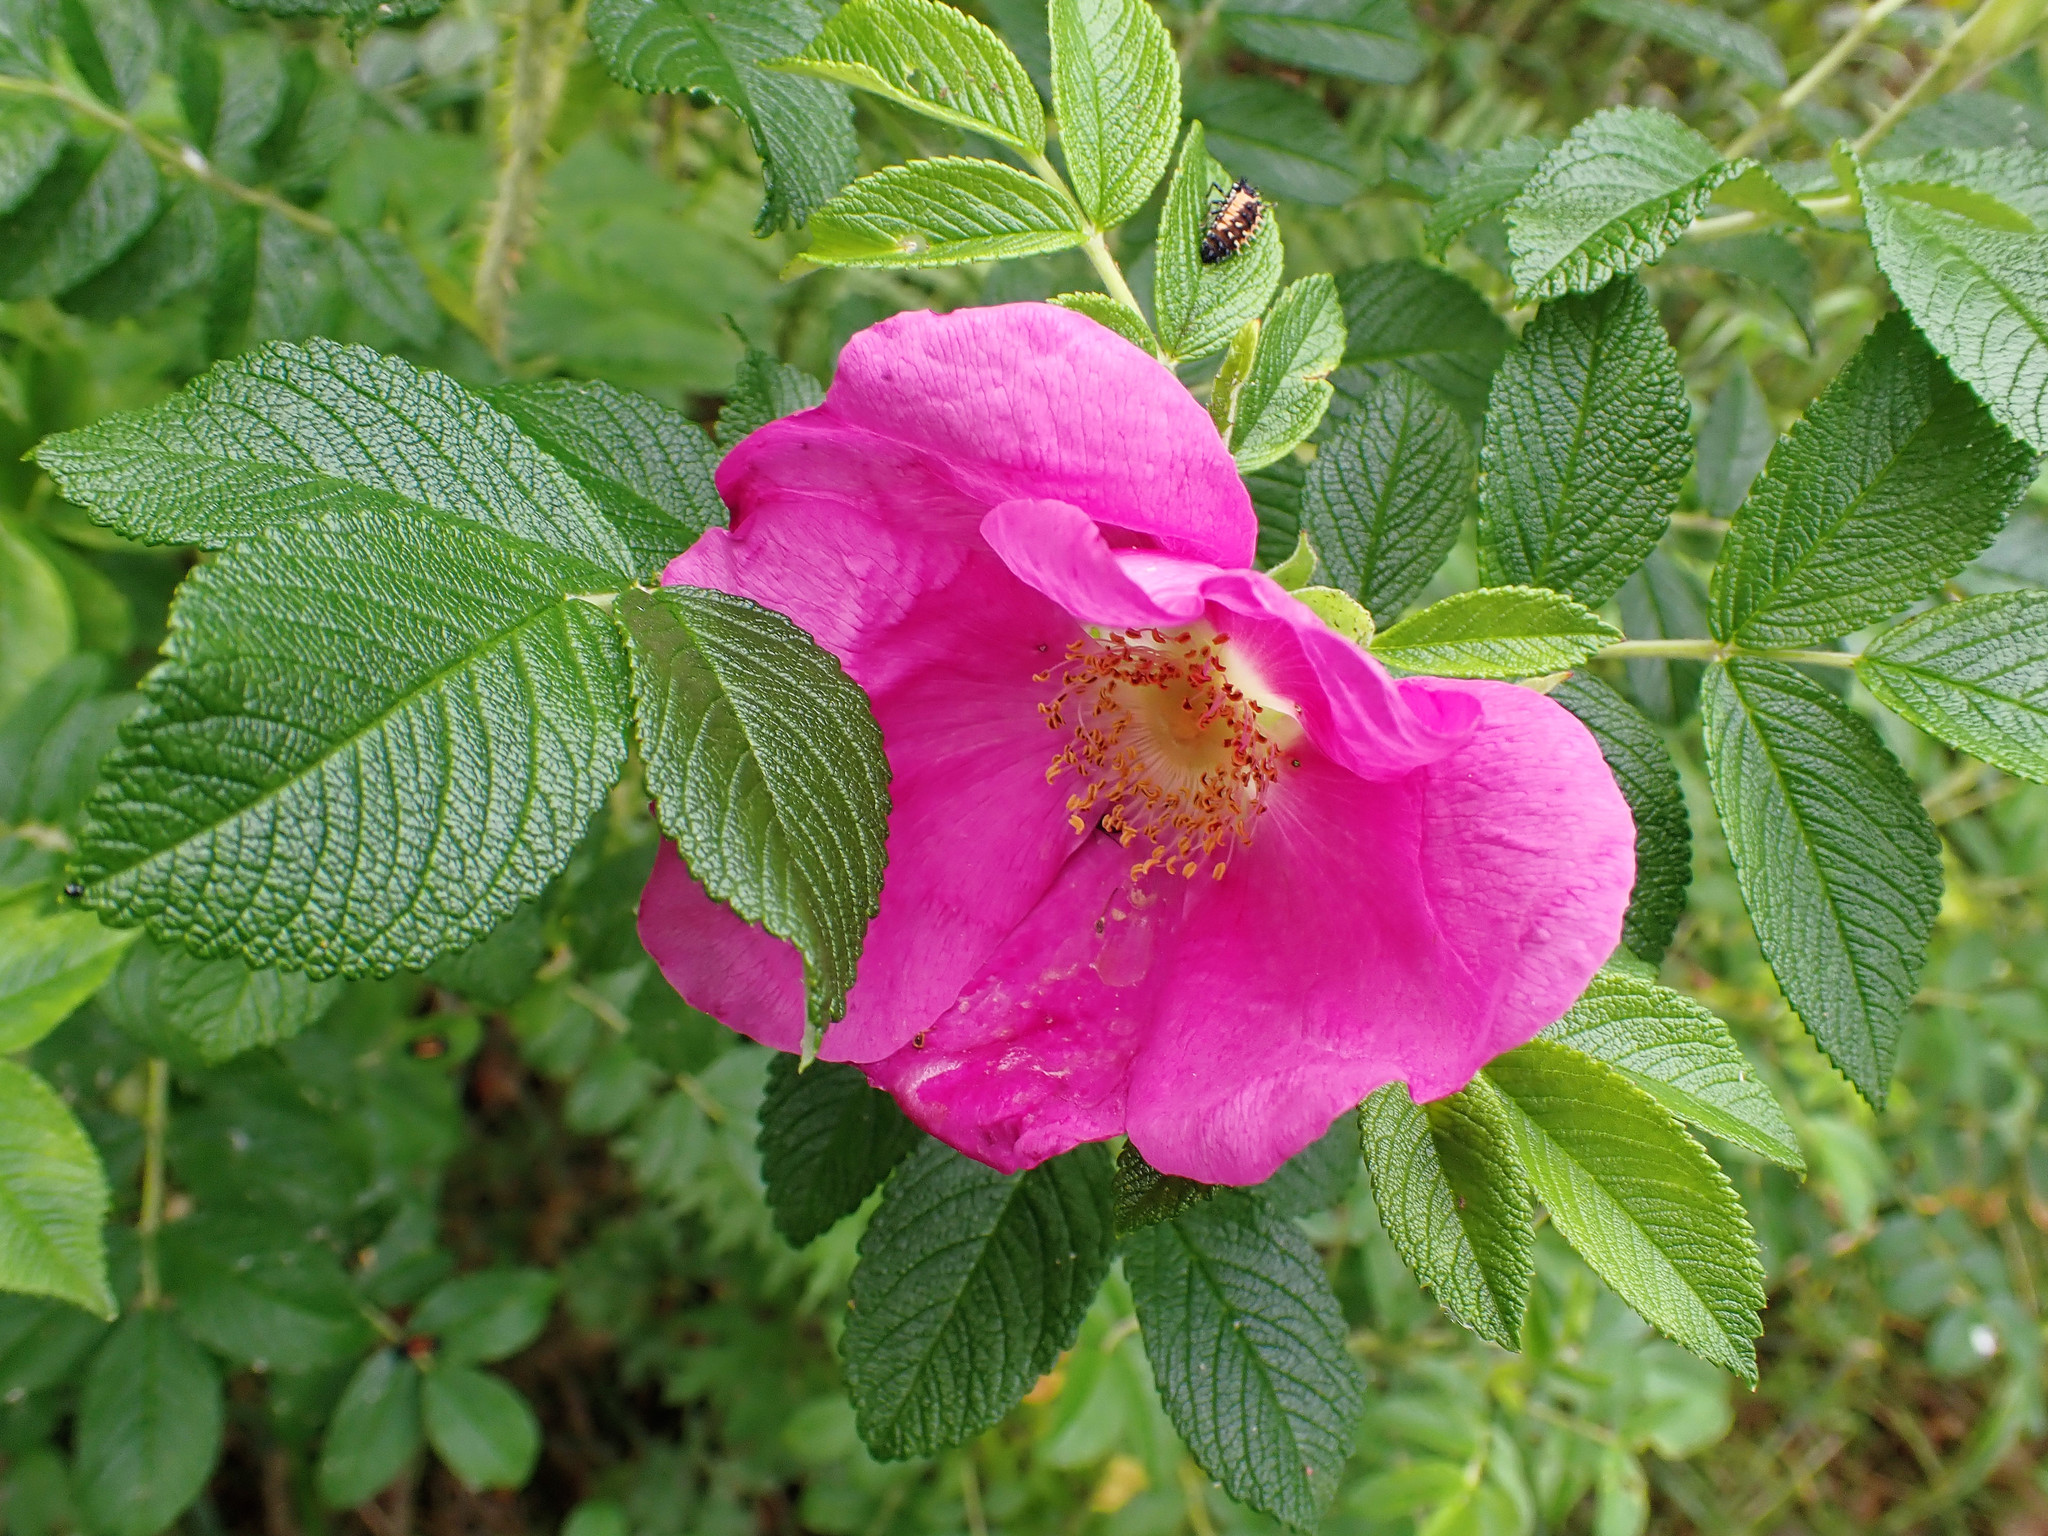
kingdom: Plantae
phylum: Tracheophyta
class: Magnoliopsida
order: Rosales
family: Rosaceae
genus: Rosa
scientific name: Rosa rugosa
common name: Japanese rose
